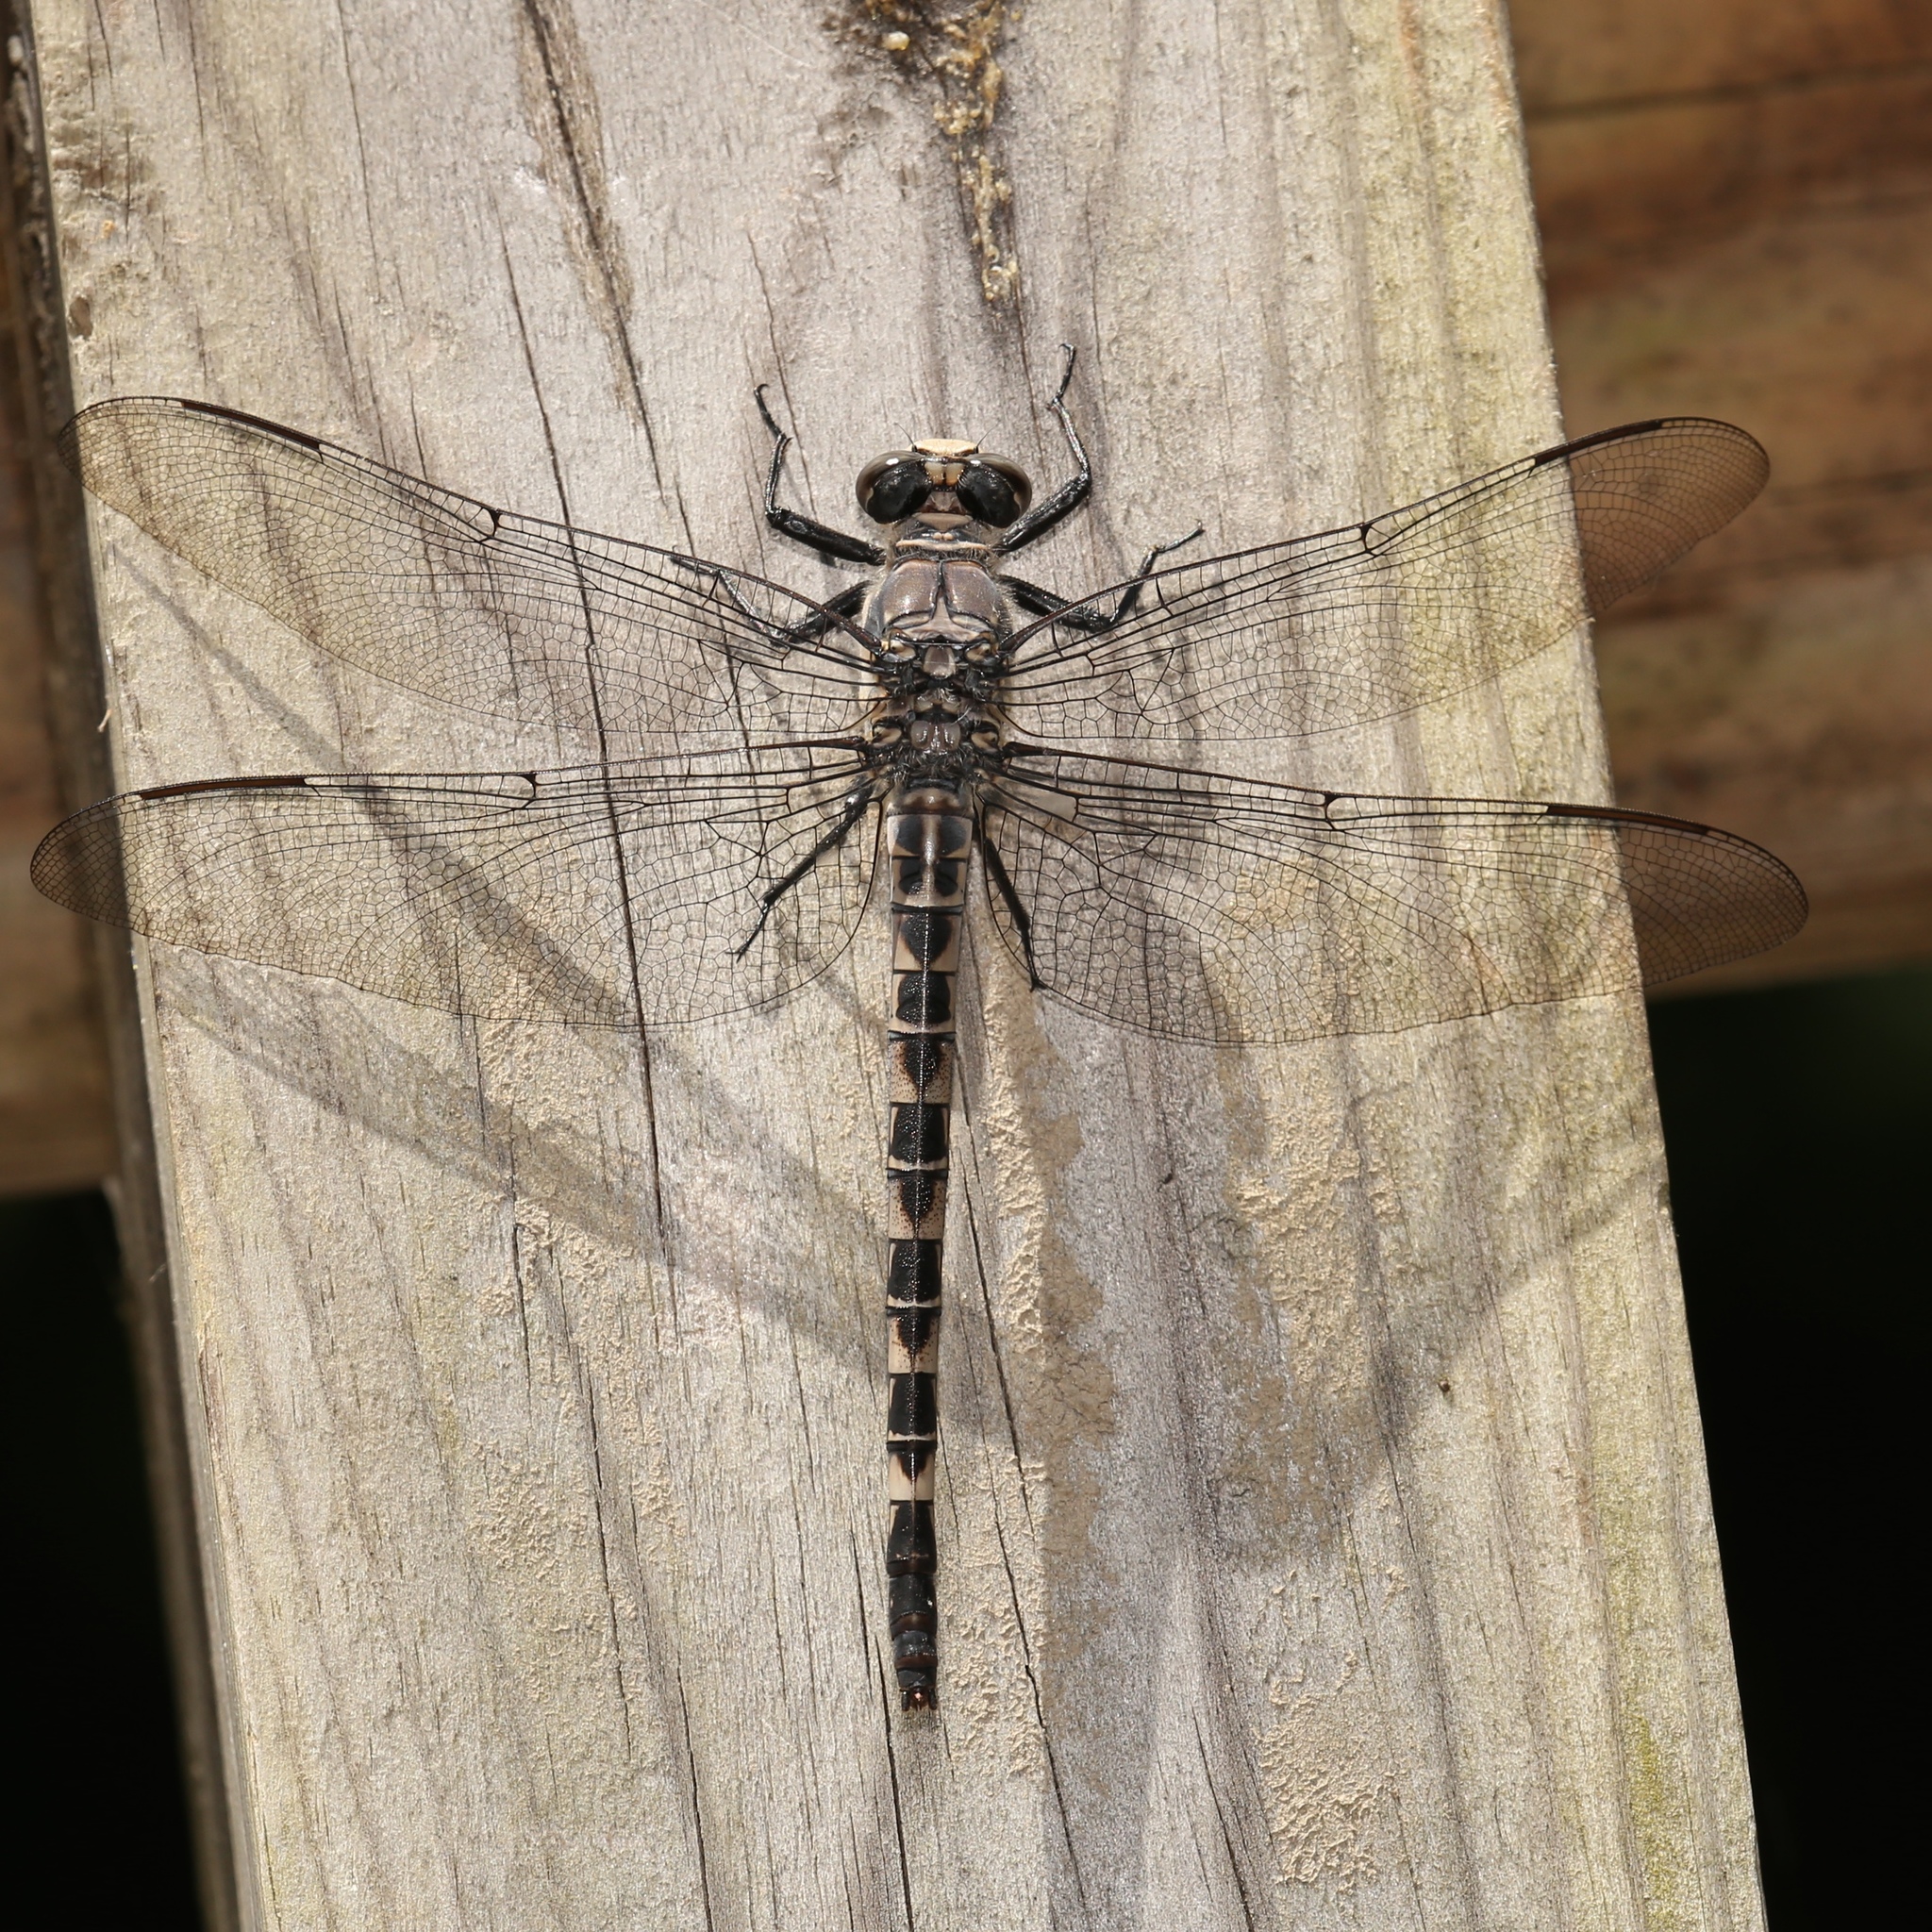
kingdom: Animalia
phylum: Arthropoda
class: Insecta
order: Odonata
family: Petaluridae
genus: Tachopteryx
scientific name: Tachopteryx thoreyi
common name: Gray petaltail
